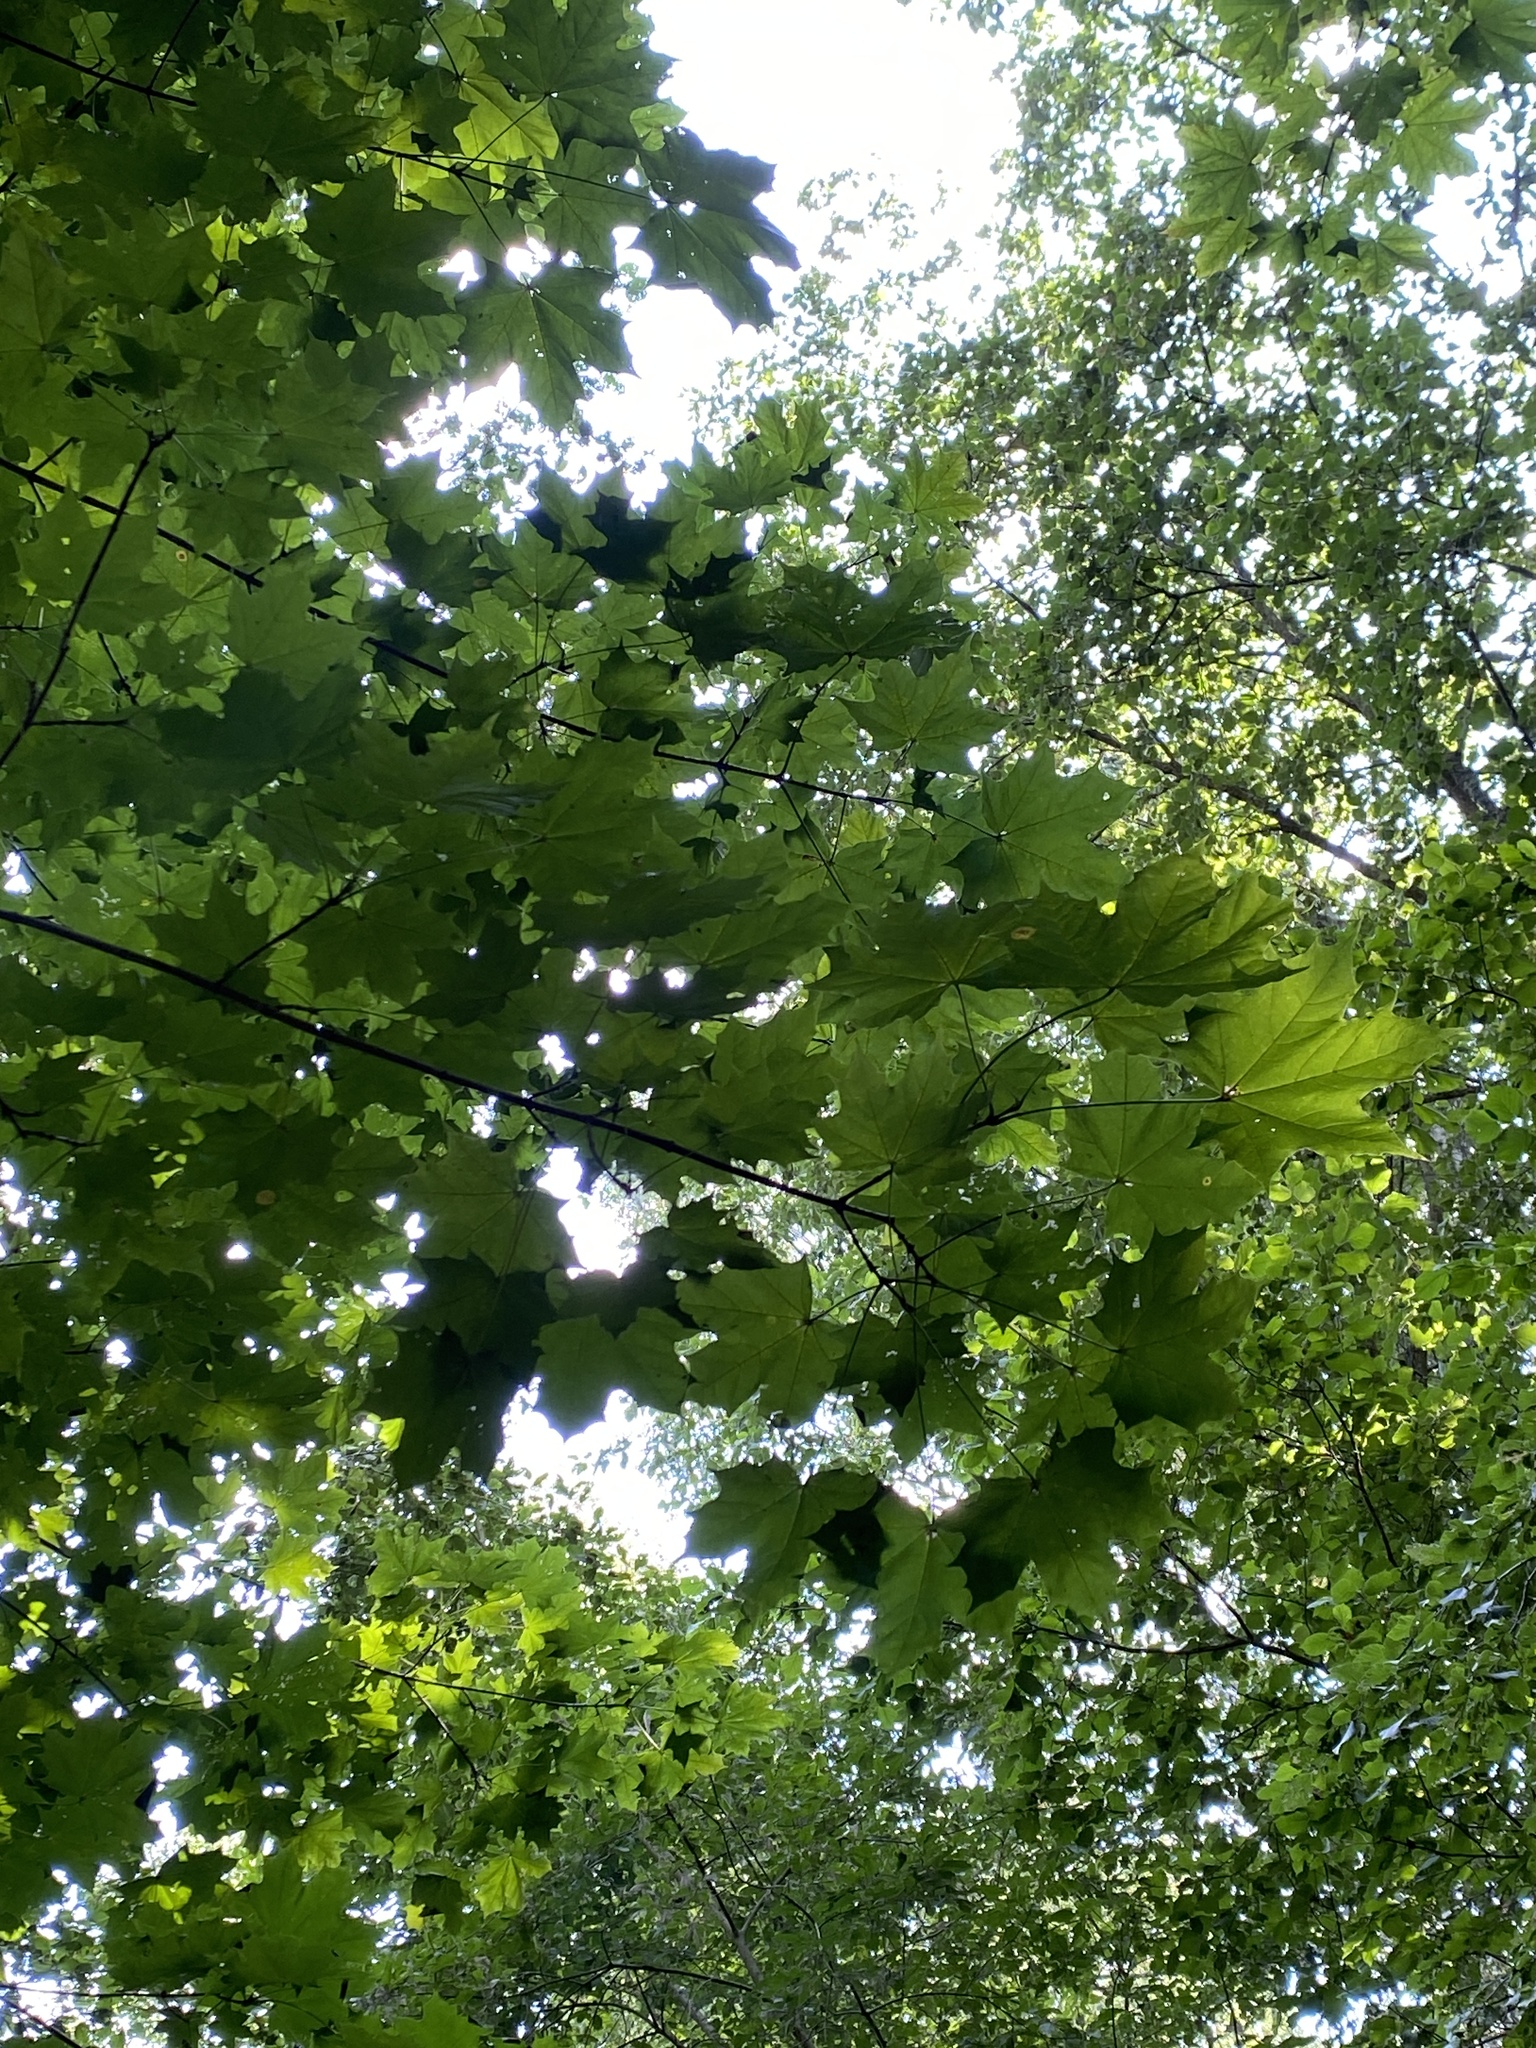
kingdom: Plantae
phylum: Tracheophyta
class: Magnoliopsida
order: Sapindales
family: Sapindaceae
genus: Acer
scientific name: Acer platanoides
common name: Norway maple
